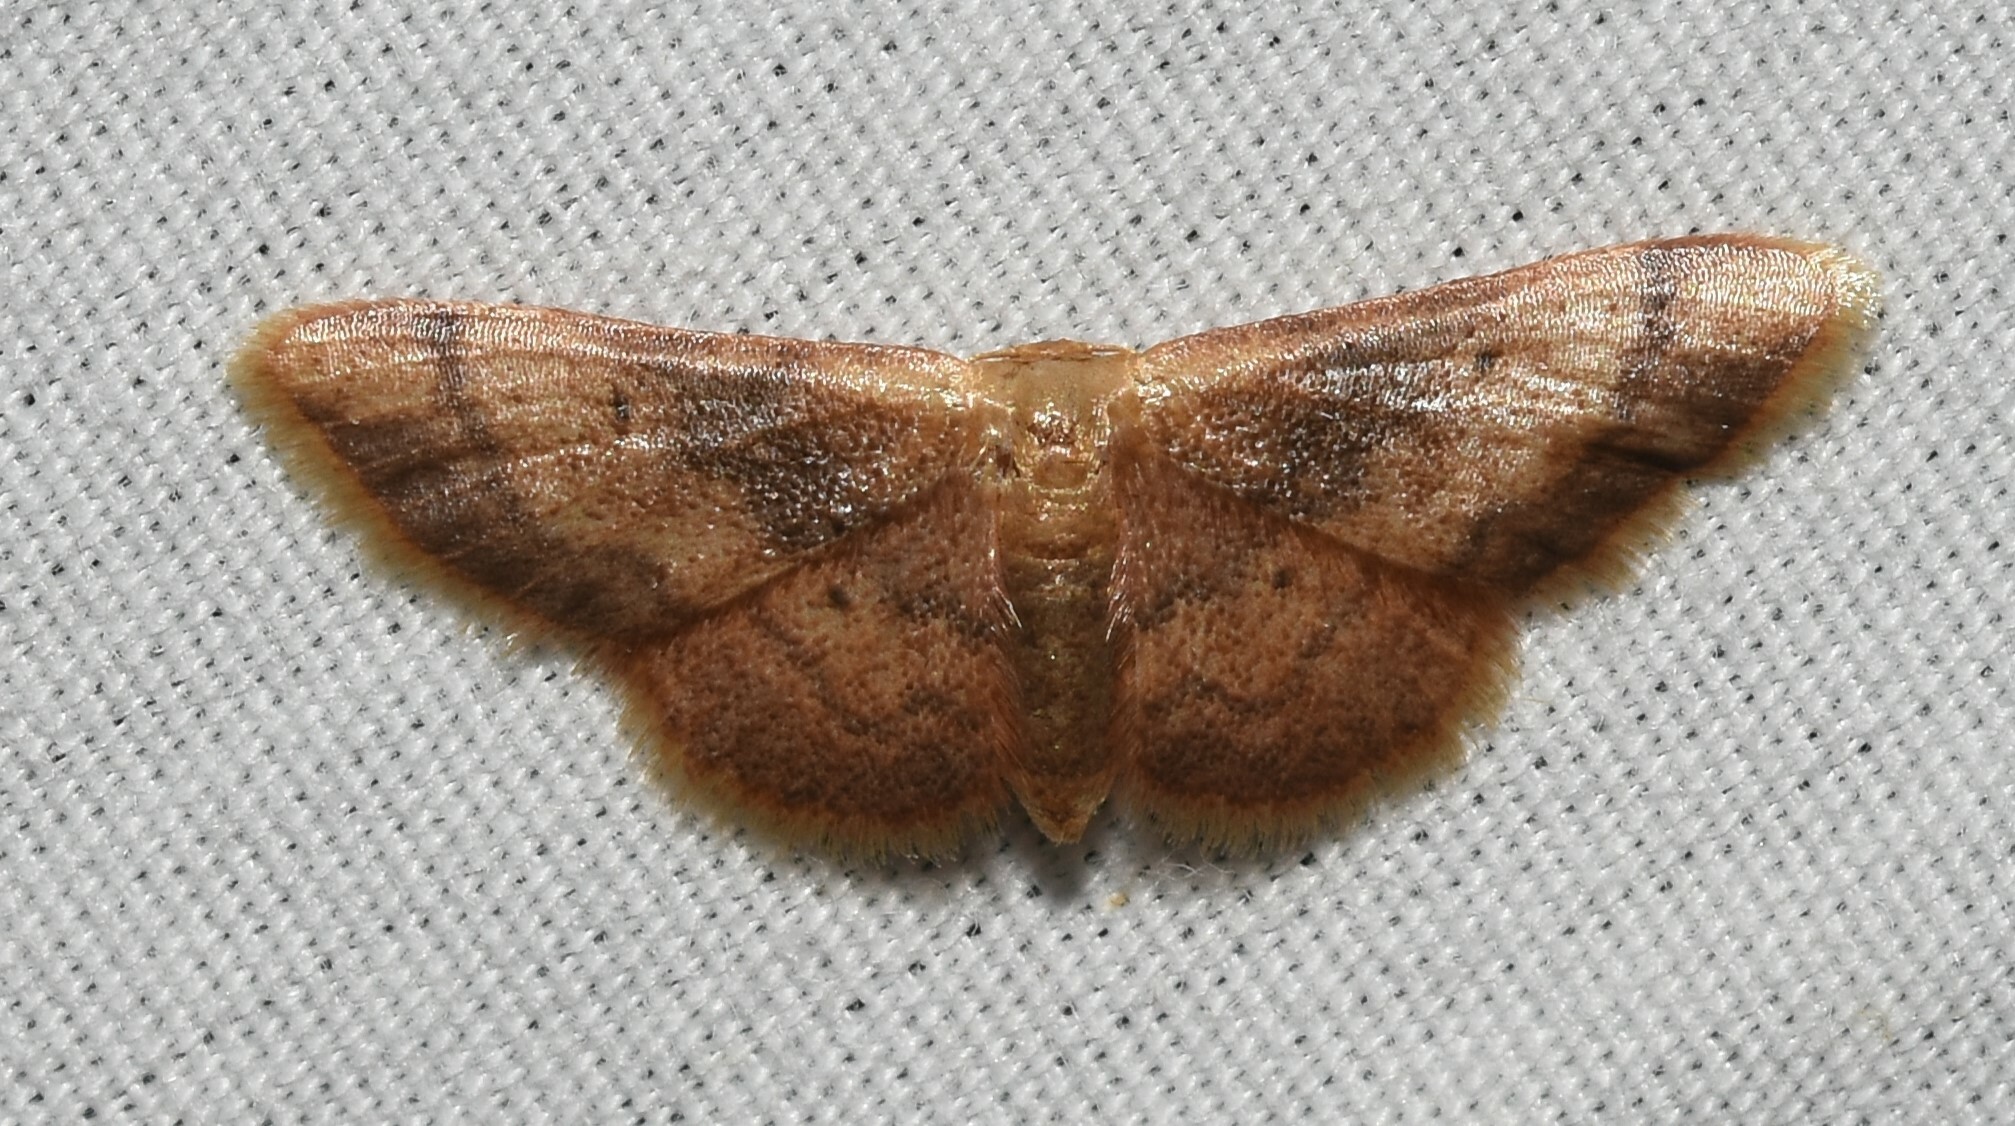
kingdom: Animalia
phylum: Arthropoda
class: Insecta
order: Lepidoptera
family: Geometridae
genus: Idaea
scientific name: Idaea demissaria
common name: Red-bordered wave
